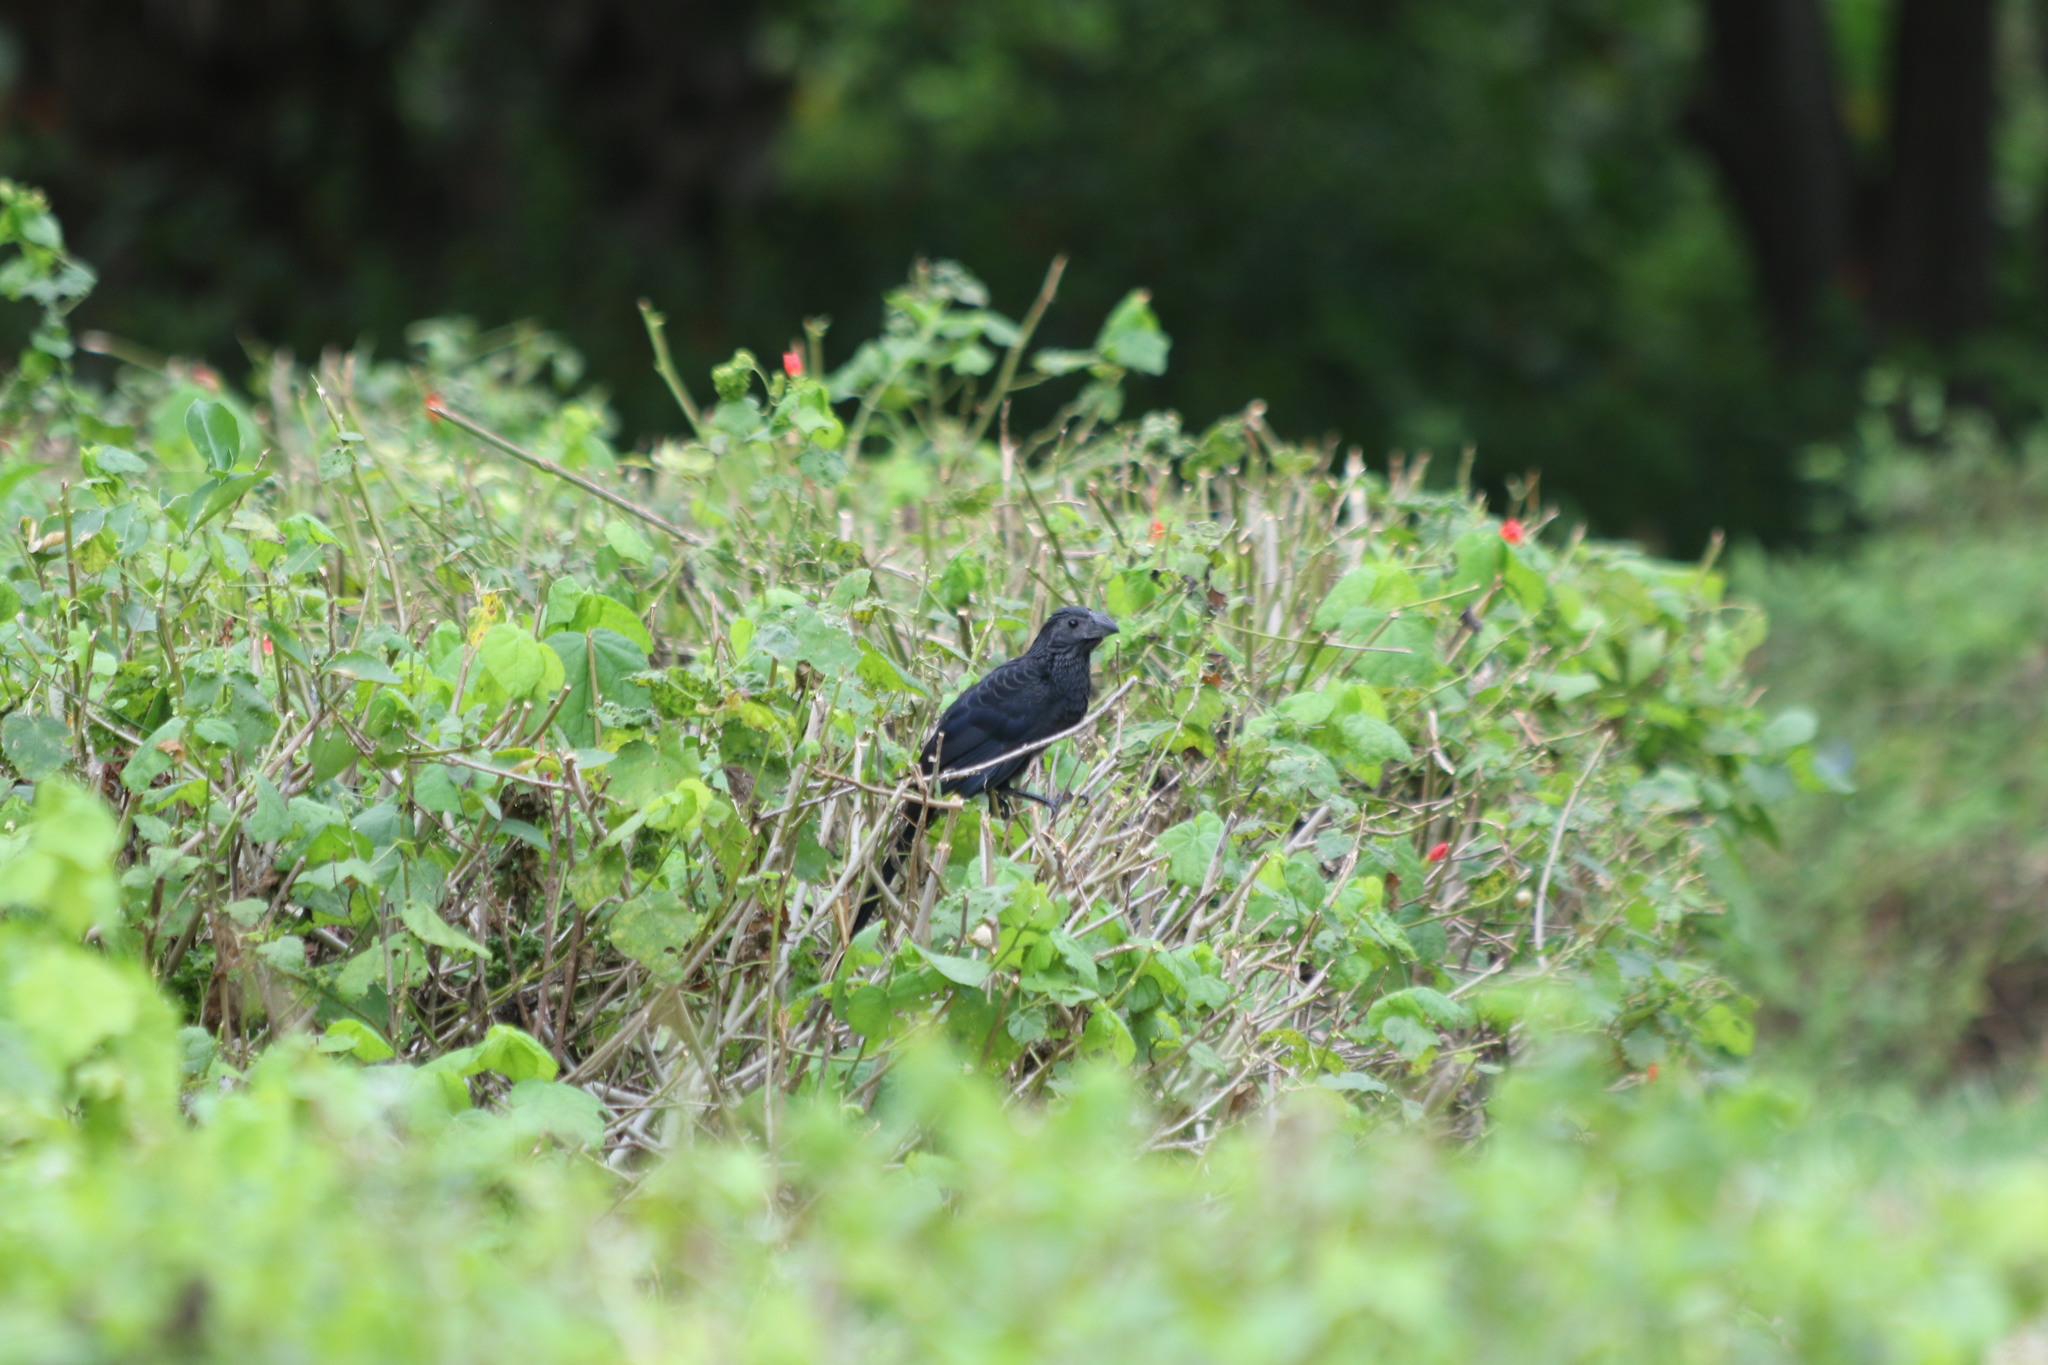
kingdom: Animalia
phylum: Chordata
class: Aves
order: Cuculiformes
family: Cuculidae
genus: Crotophaga
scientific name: Crotophaga sulcirostris
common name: Groove-billed ani
